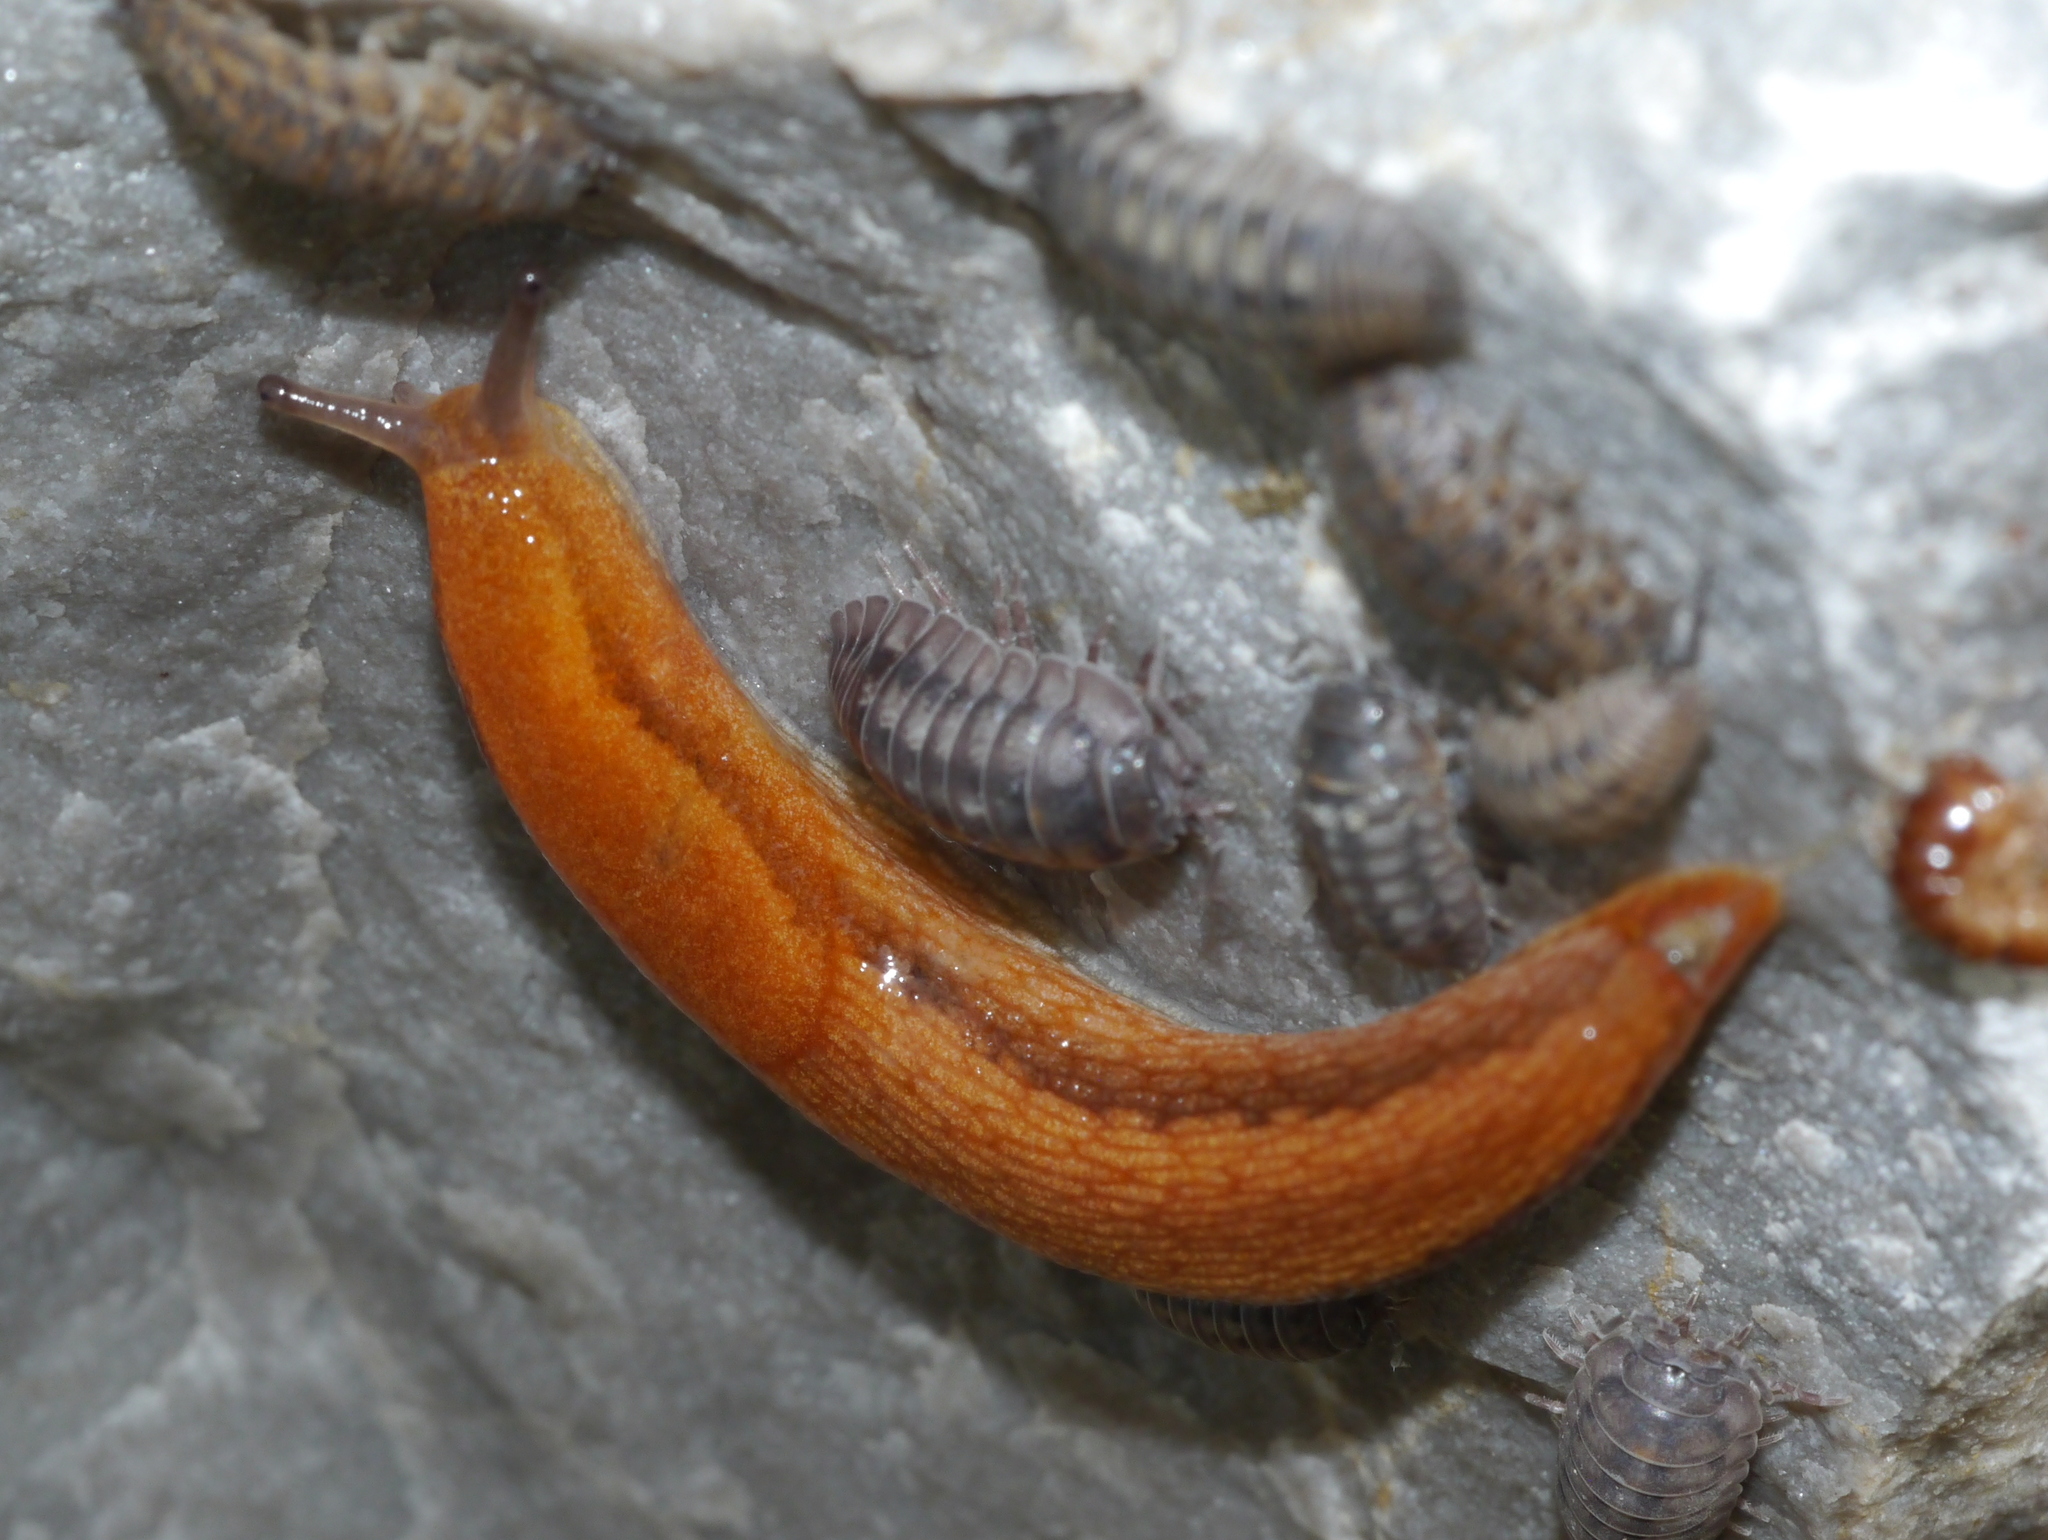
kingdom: Animalia
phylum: Mollusca
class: Gastropoda
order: Stylommatophora
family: Arionidae
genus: Arion
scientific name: Arion subfuscus
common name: Dusky arion
